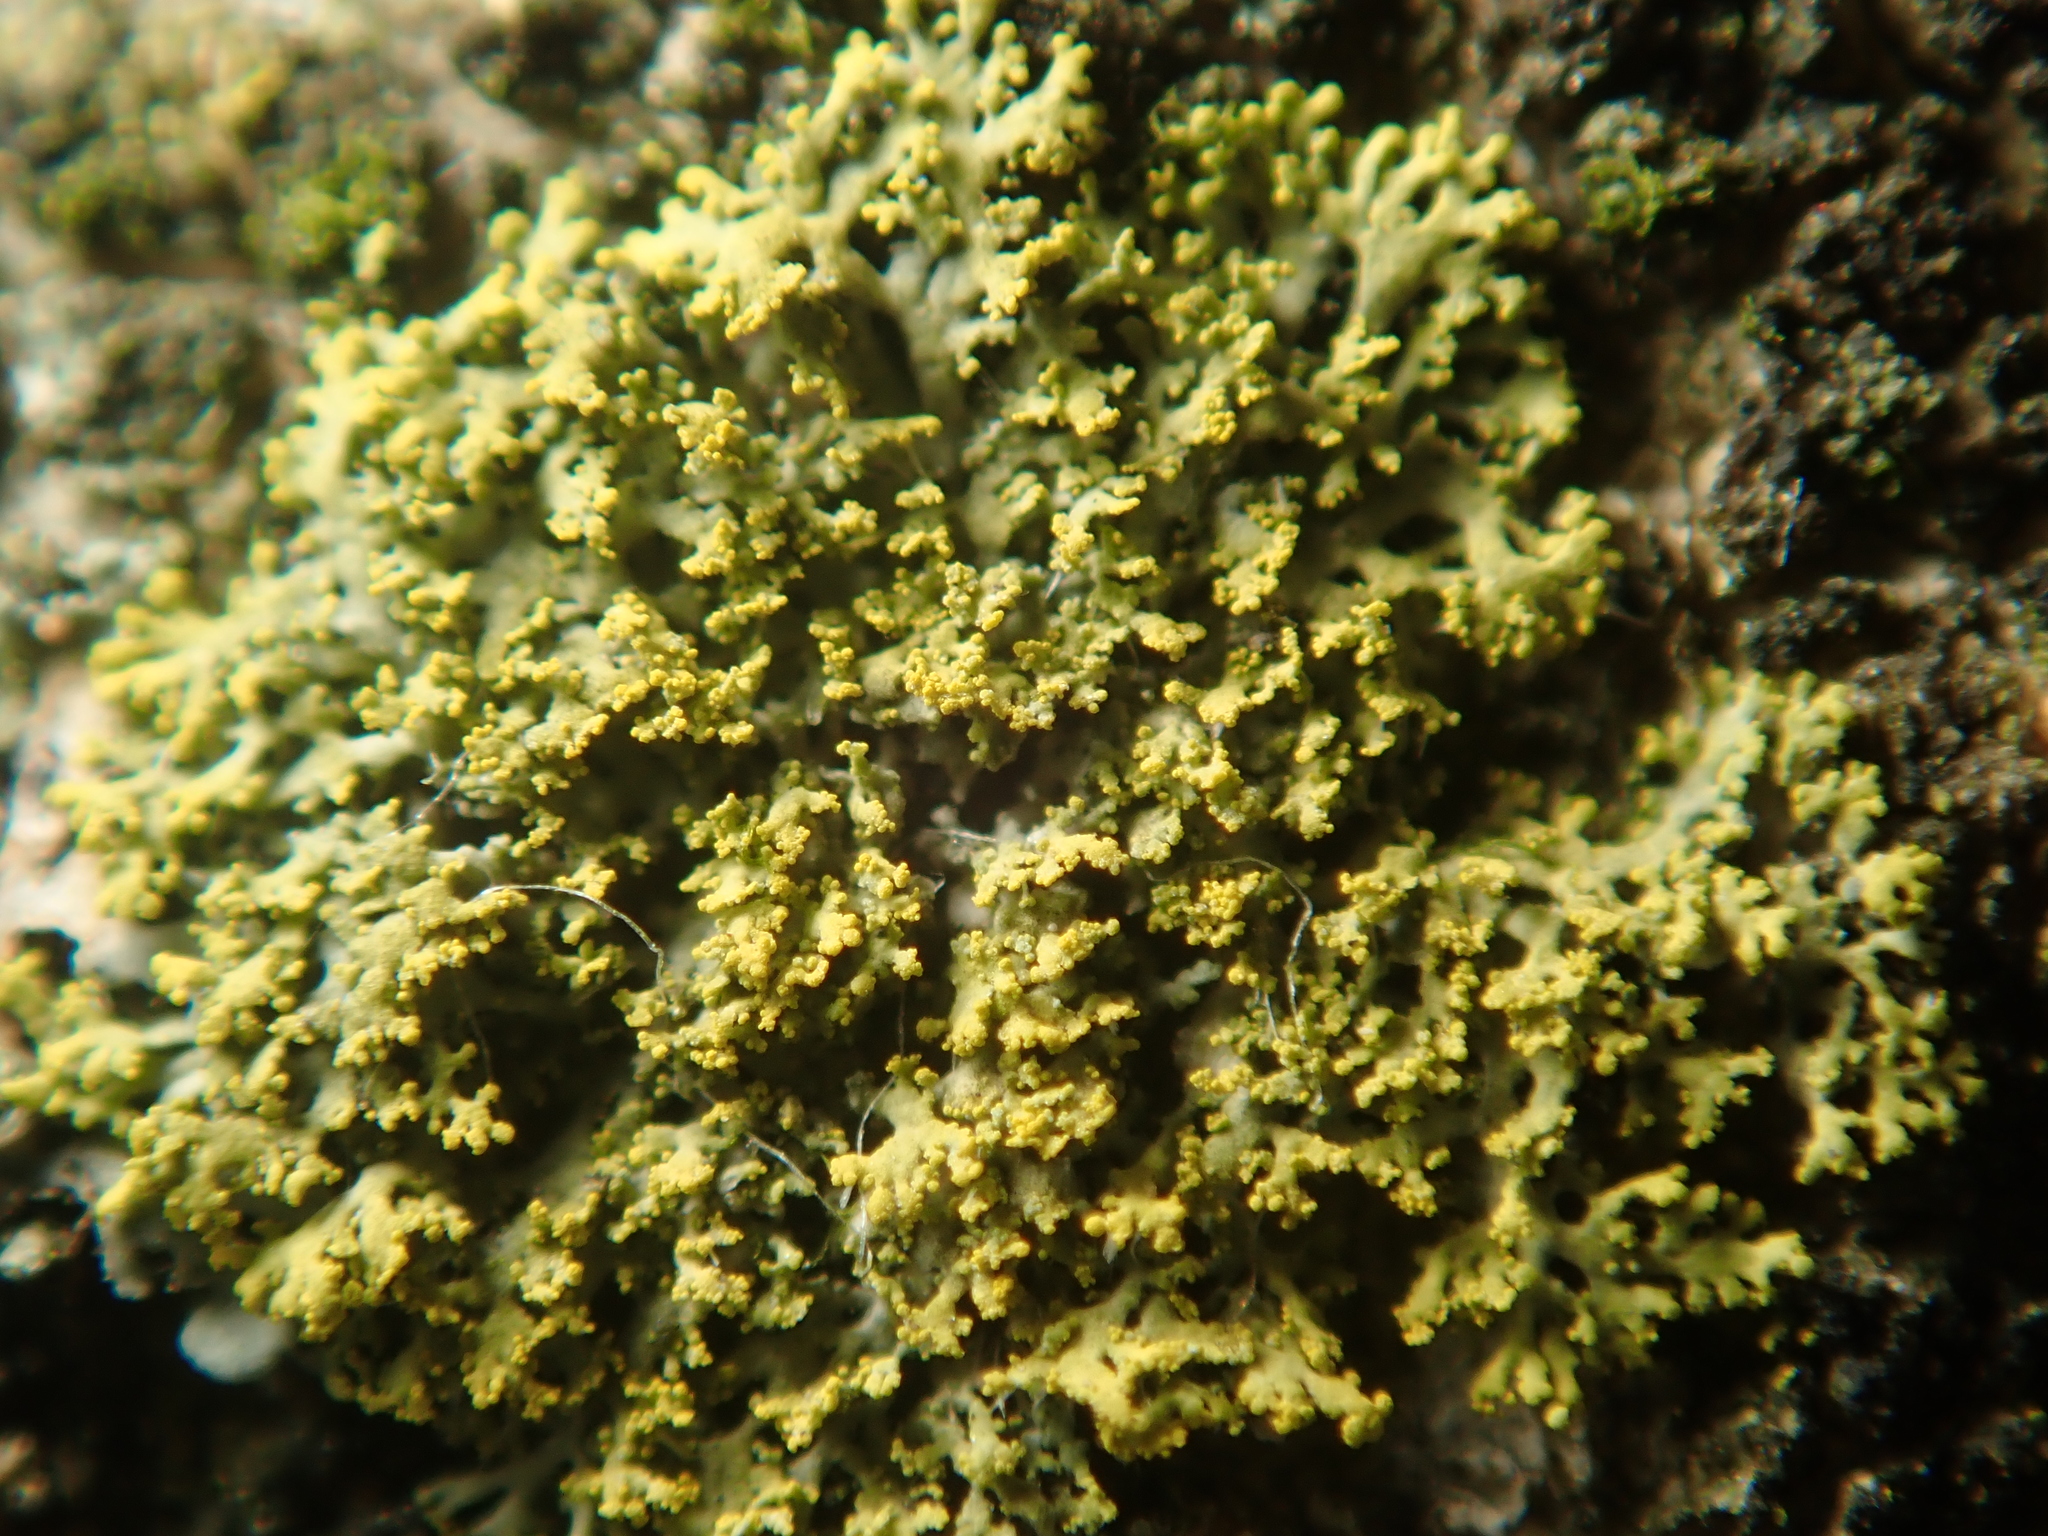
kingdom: Fungi
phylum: Ascomycota
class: Candelariomycetes
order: Candelariales
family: Candelariaceae
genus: Candelaria
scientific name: Candelaria pacifica
